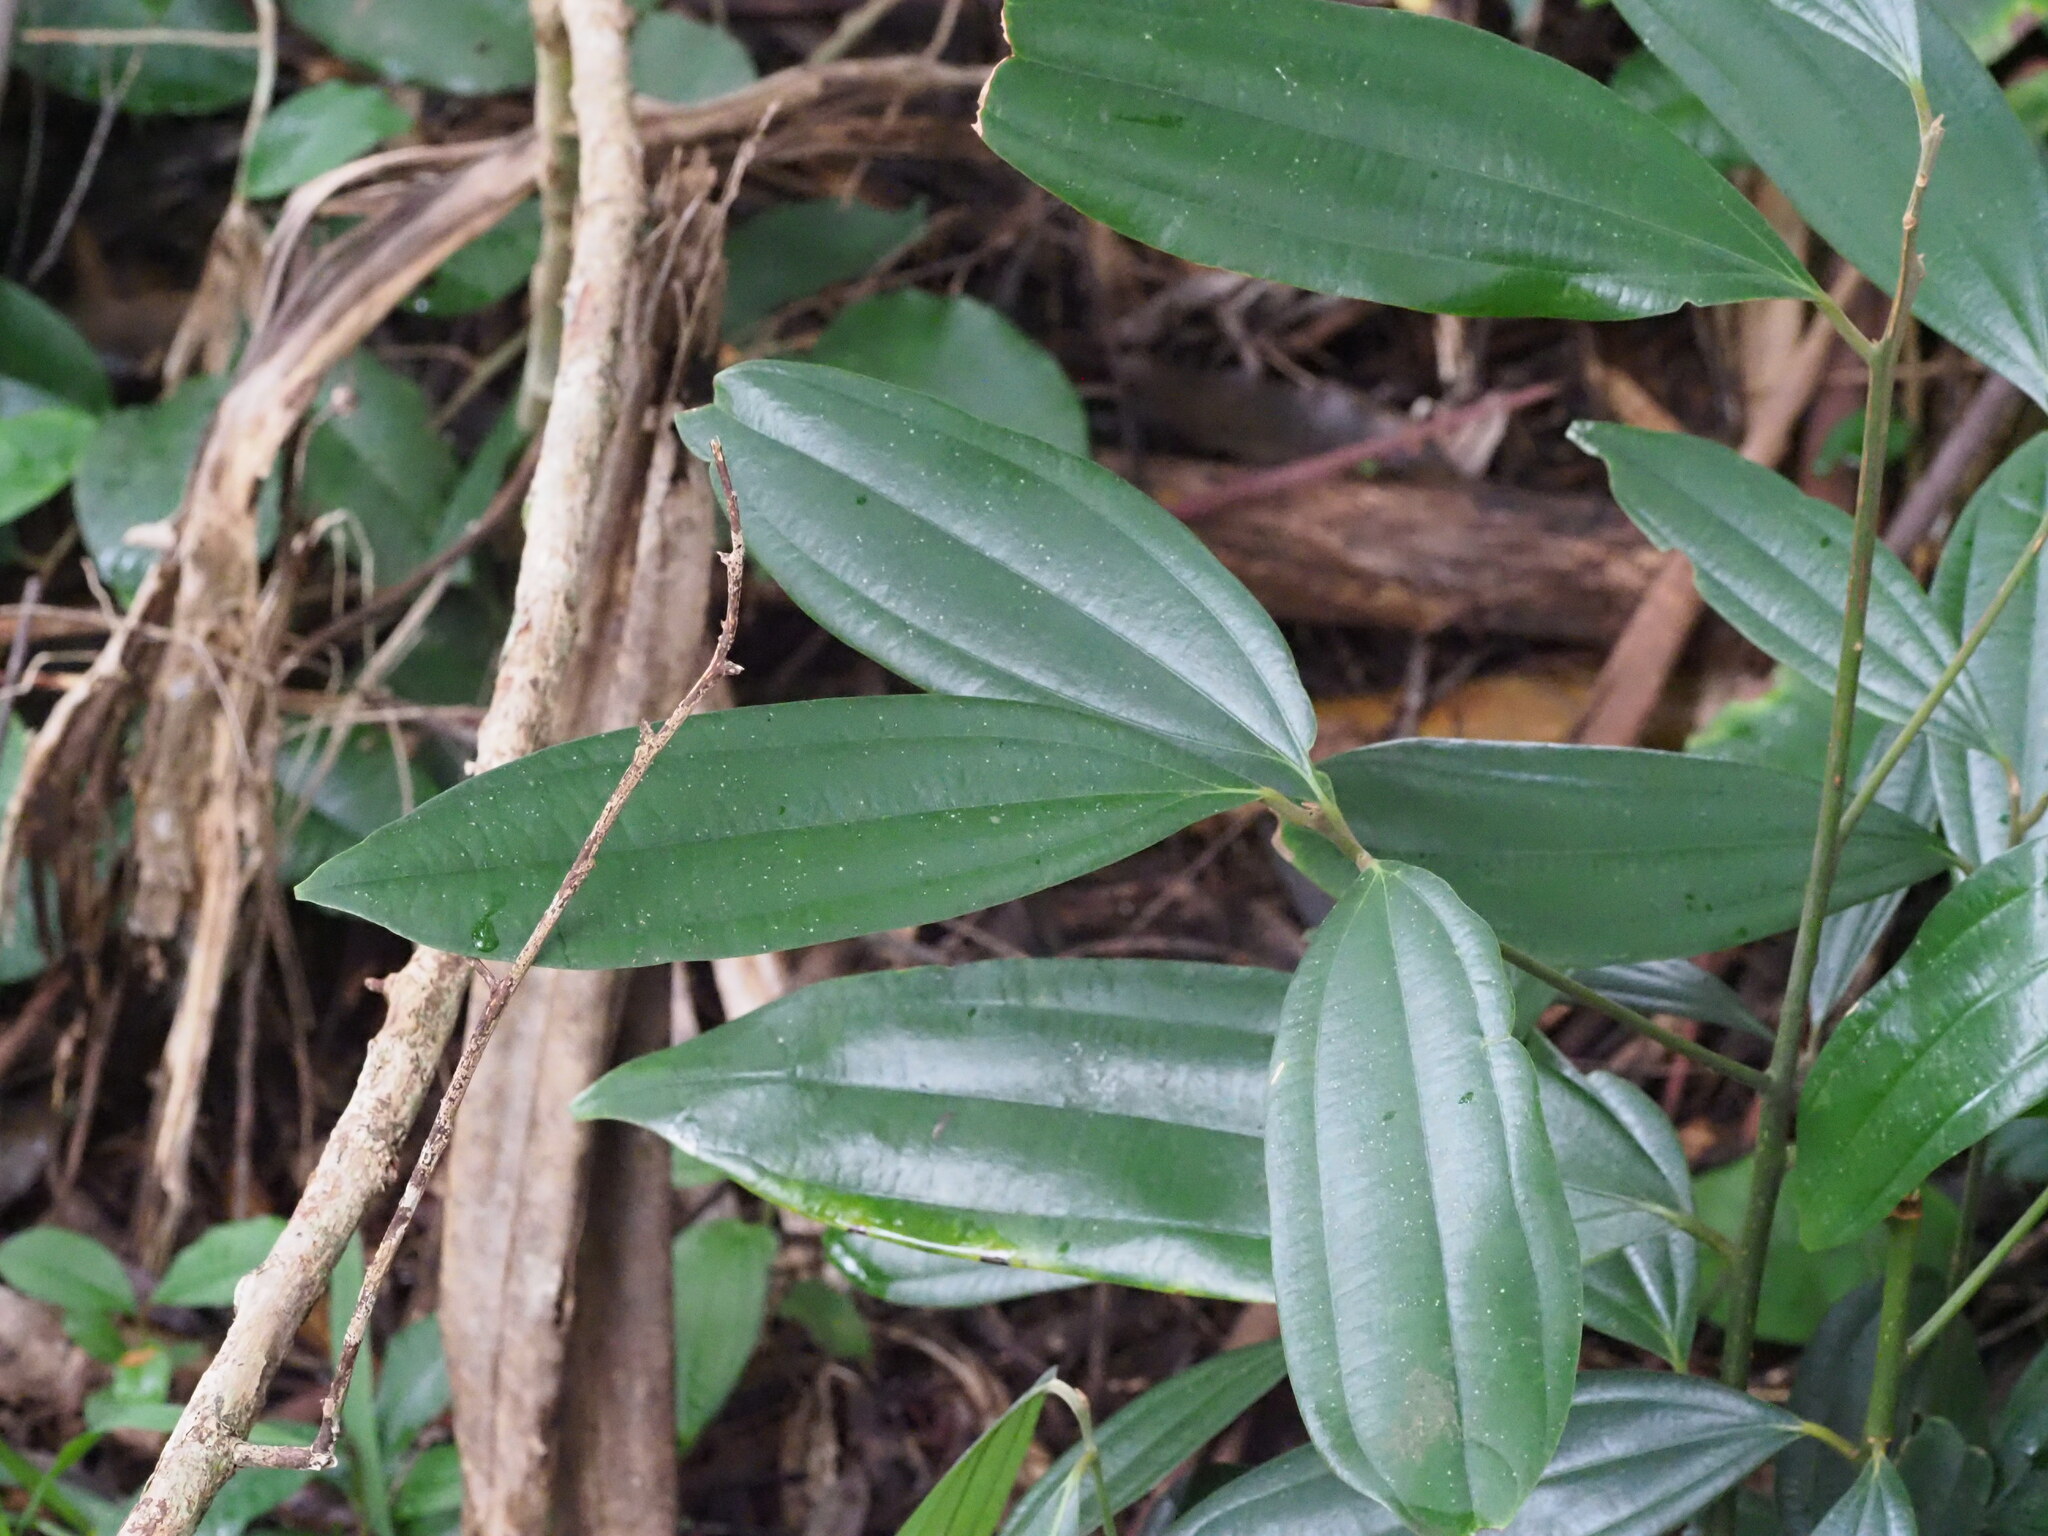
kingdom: Plantae
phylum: Tracheophyta
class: Magnoliopsida
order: Laurales
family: Lauraceae
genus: Cinnamomum
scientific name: Cinnamomum verum
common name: Cinnamon
